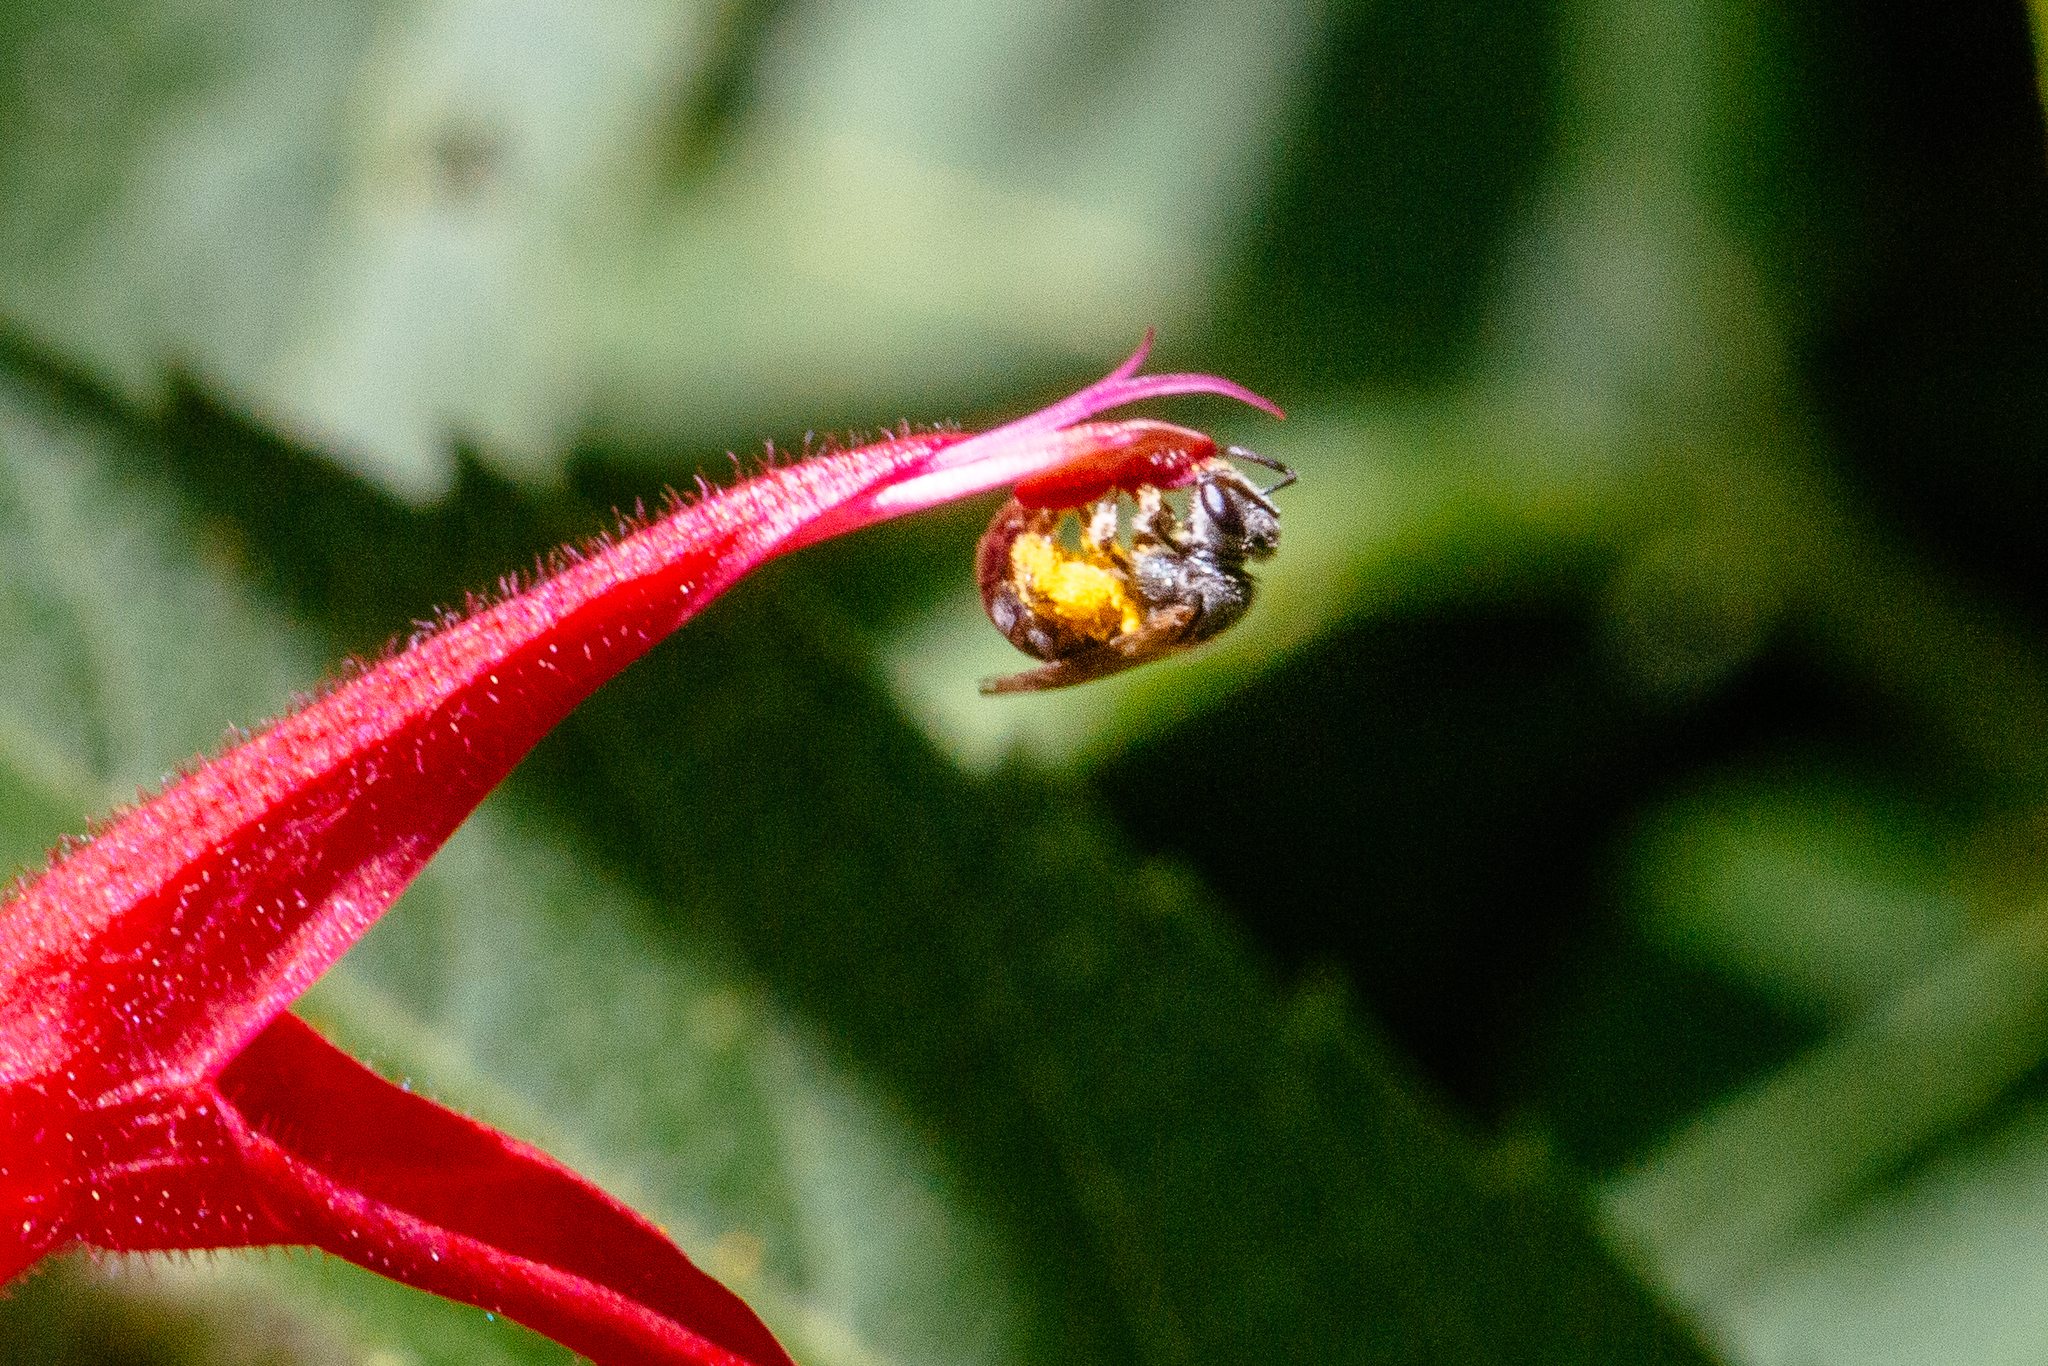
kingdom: Animalia
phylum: Arthropoda
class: Insecta
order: Hymenoptera
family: Halictidae
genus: Dialictus
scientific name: Dialictus
